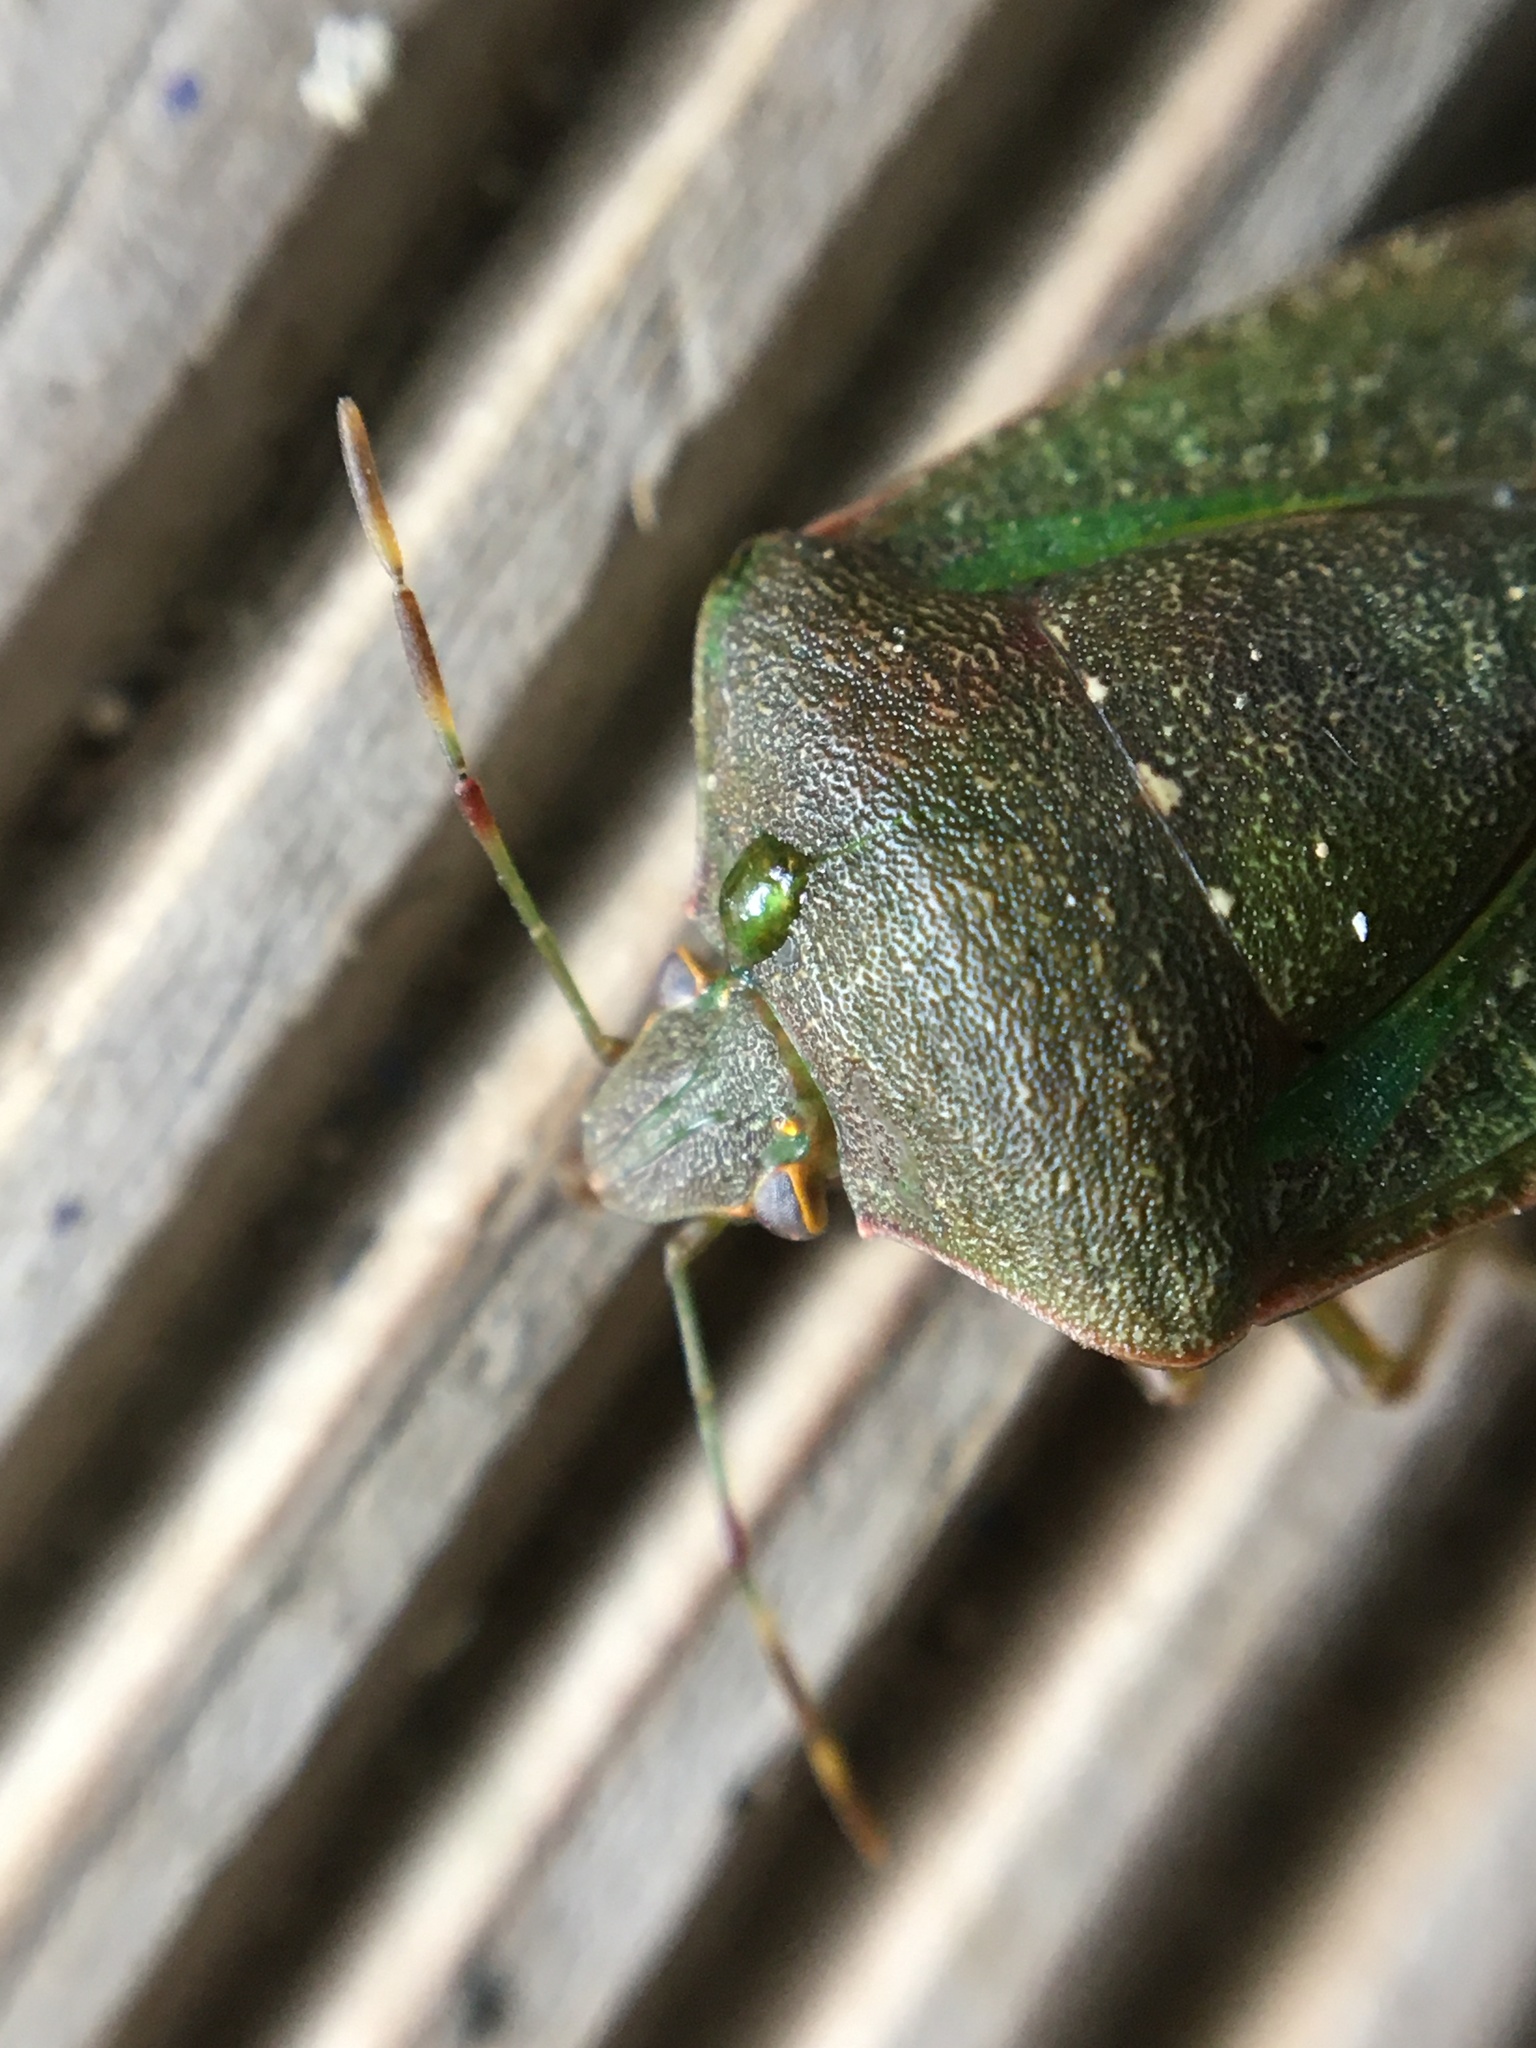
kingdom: Animalia
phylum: Arthropoda
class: Insecta
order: Hemiptera
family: Pentatomidae
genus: Nezara
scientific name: Nezara viridula
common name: Southern green stink bug
